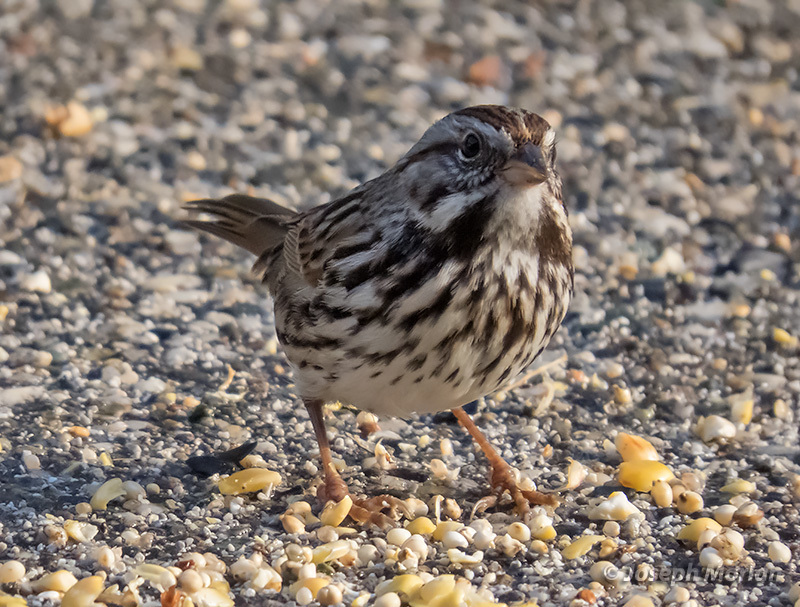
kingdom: Animalia
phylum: Chordata
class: Aves
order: Passeriformes
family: Passerellidae
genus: Melospiza
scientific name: Melospiza melodia
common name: Song sparrow
